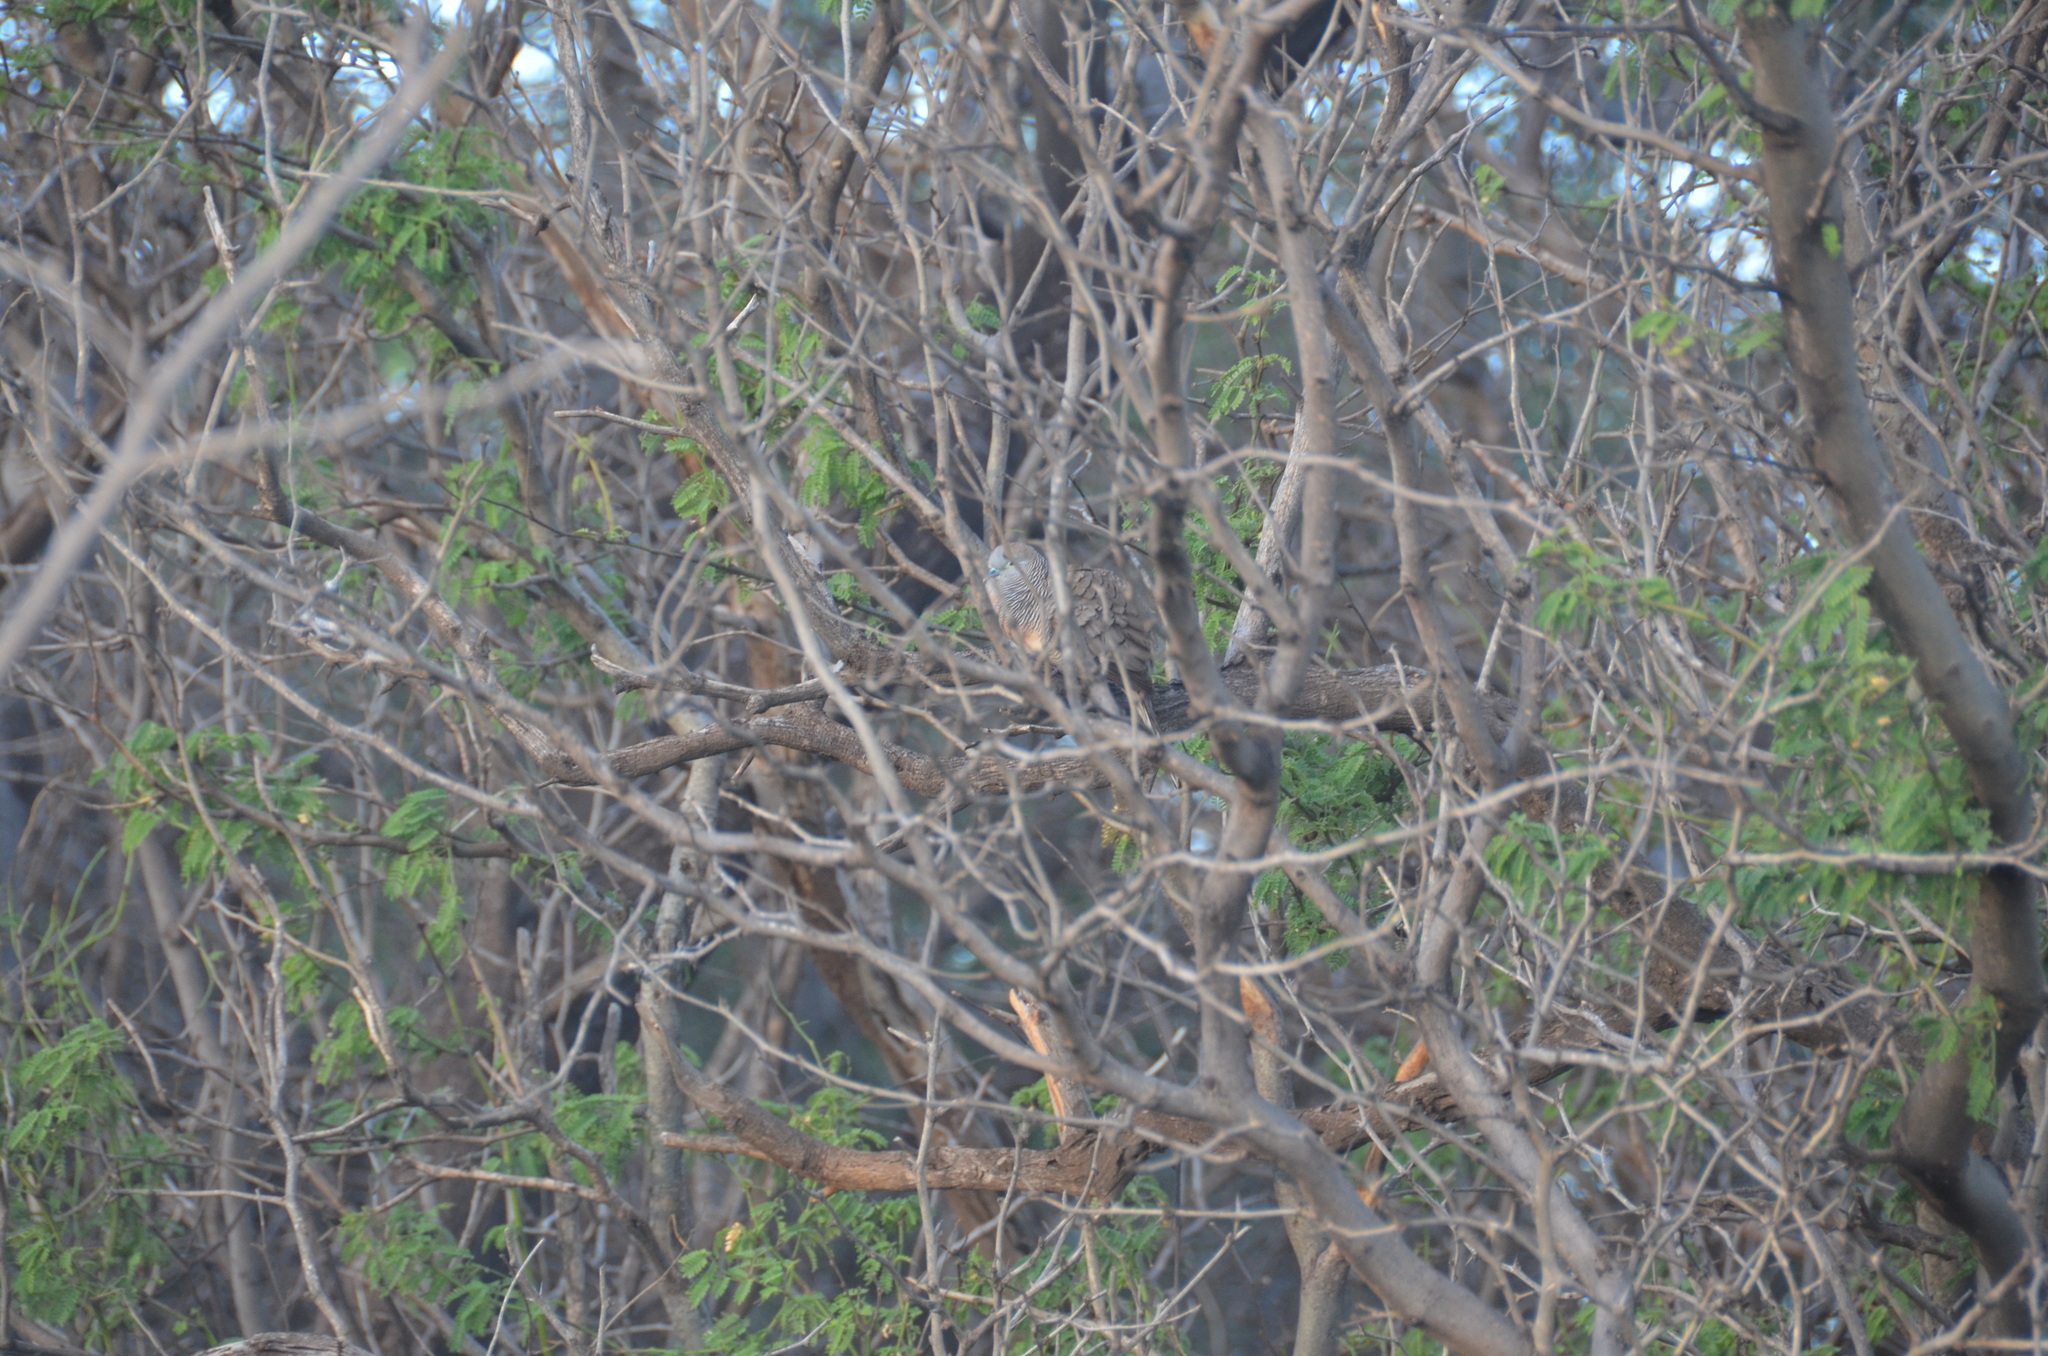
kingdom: Animalia
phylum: Chordata
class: Aves
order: Columbiformes
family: Columbidae
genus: Geopelia
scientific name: Geopelia striata
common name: Zebra dove
